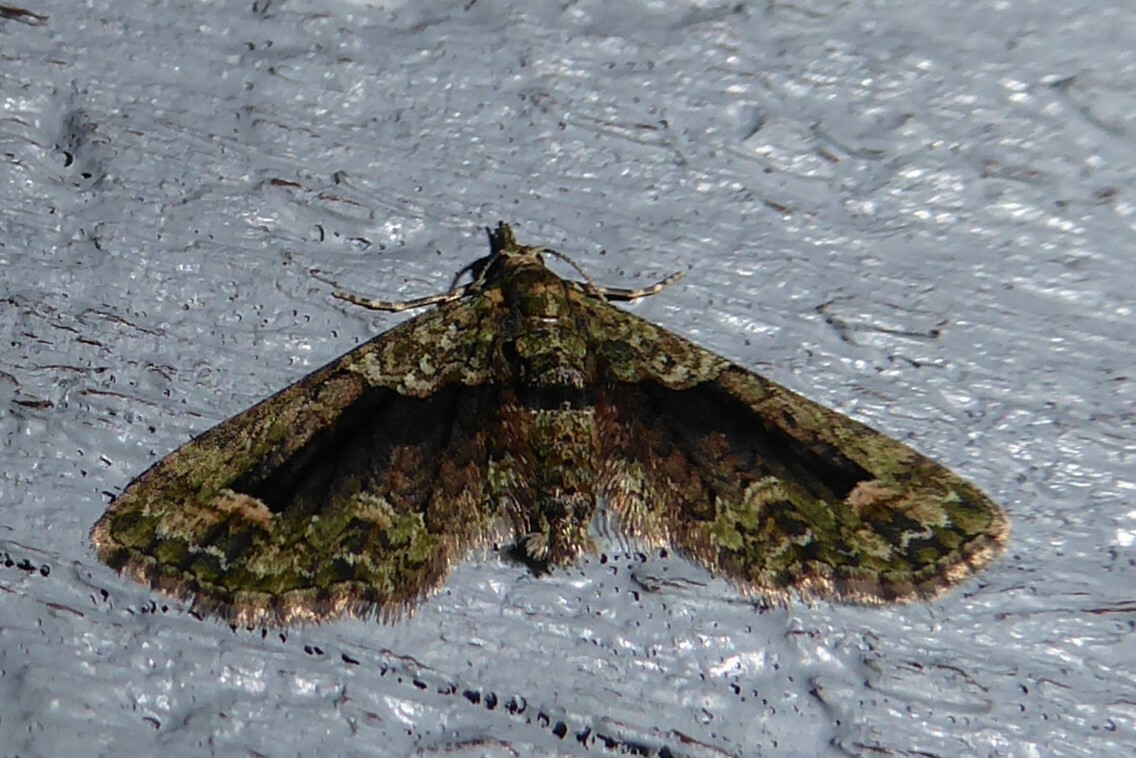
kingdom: Animalia
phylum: Arthropoda
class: Insecta
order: Lepidoptera
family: Geometridae
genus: Idaea
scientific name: Idaea mutanda
